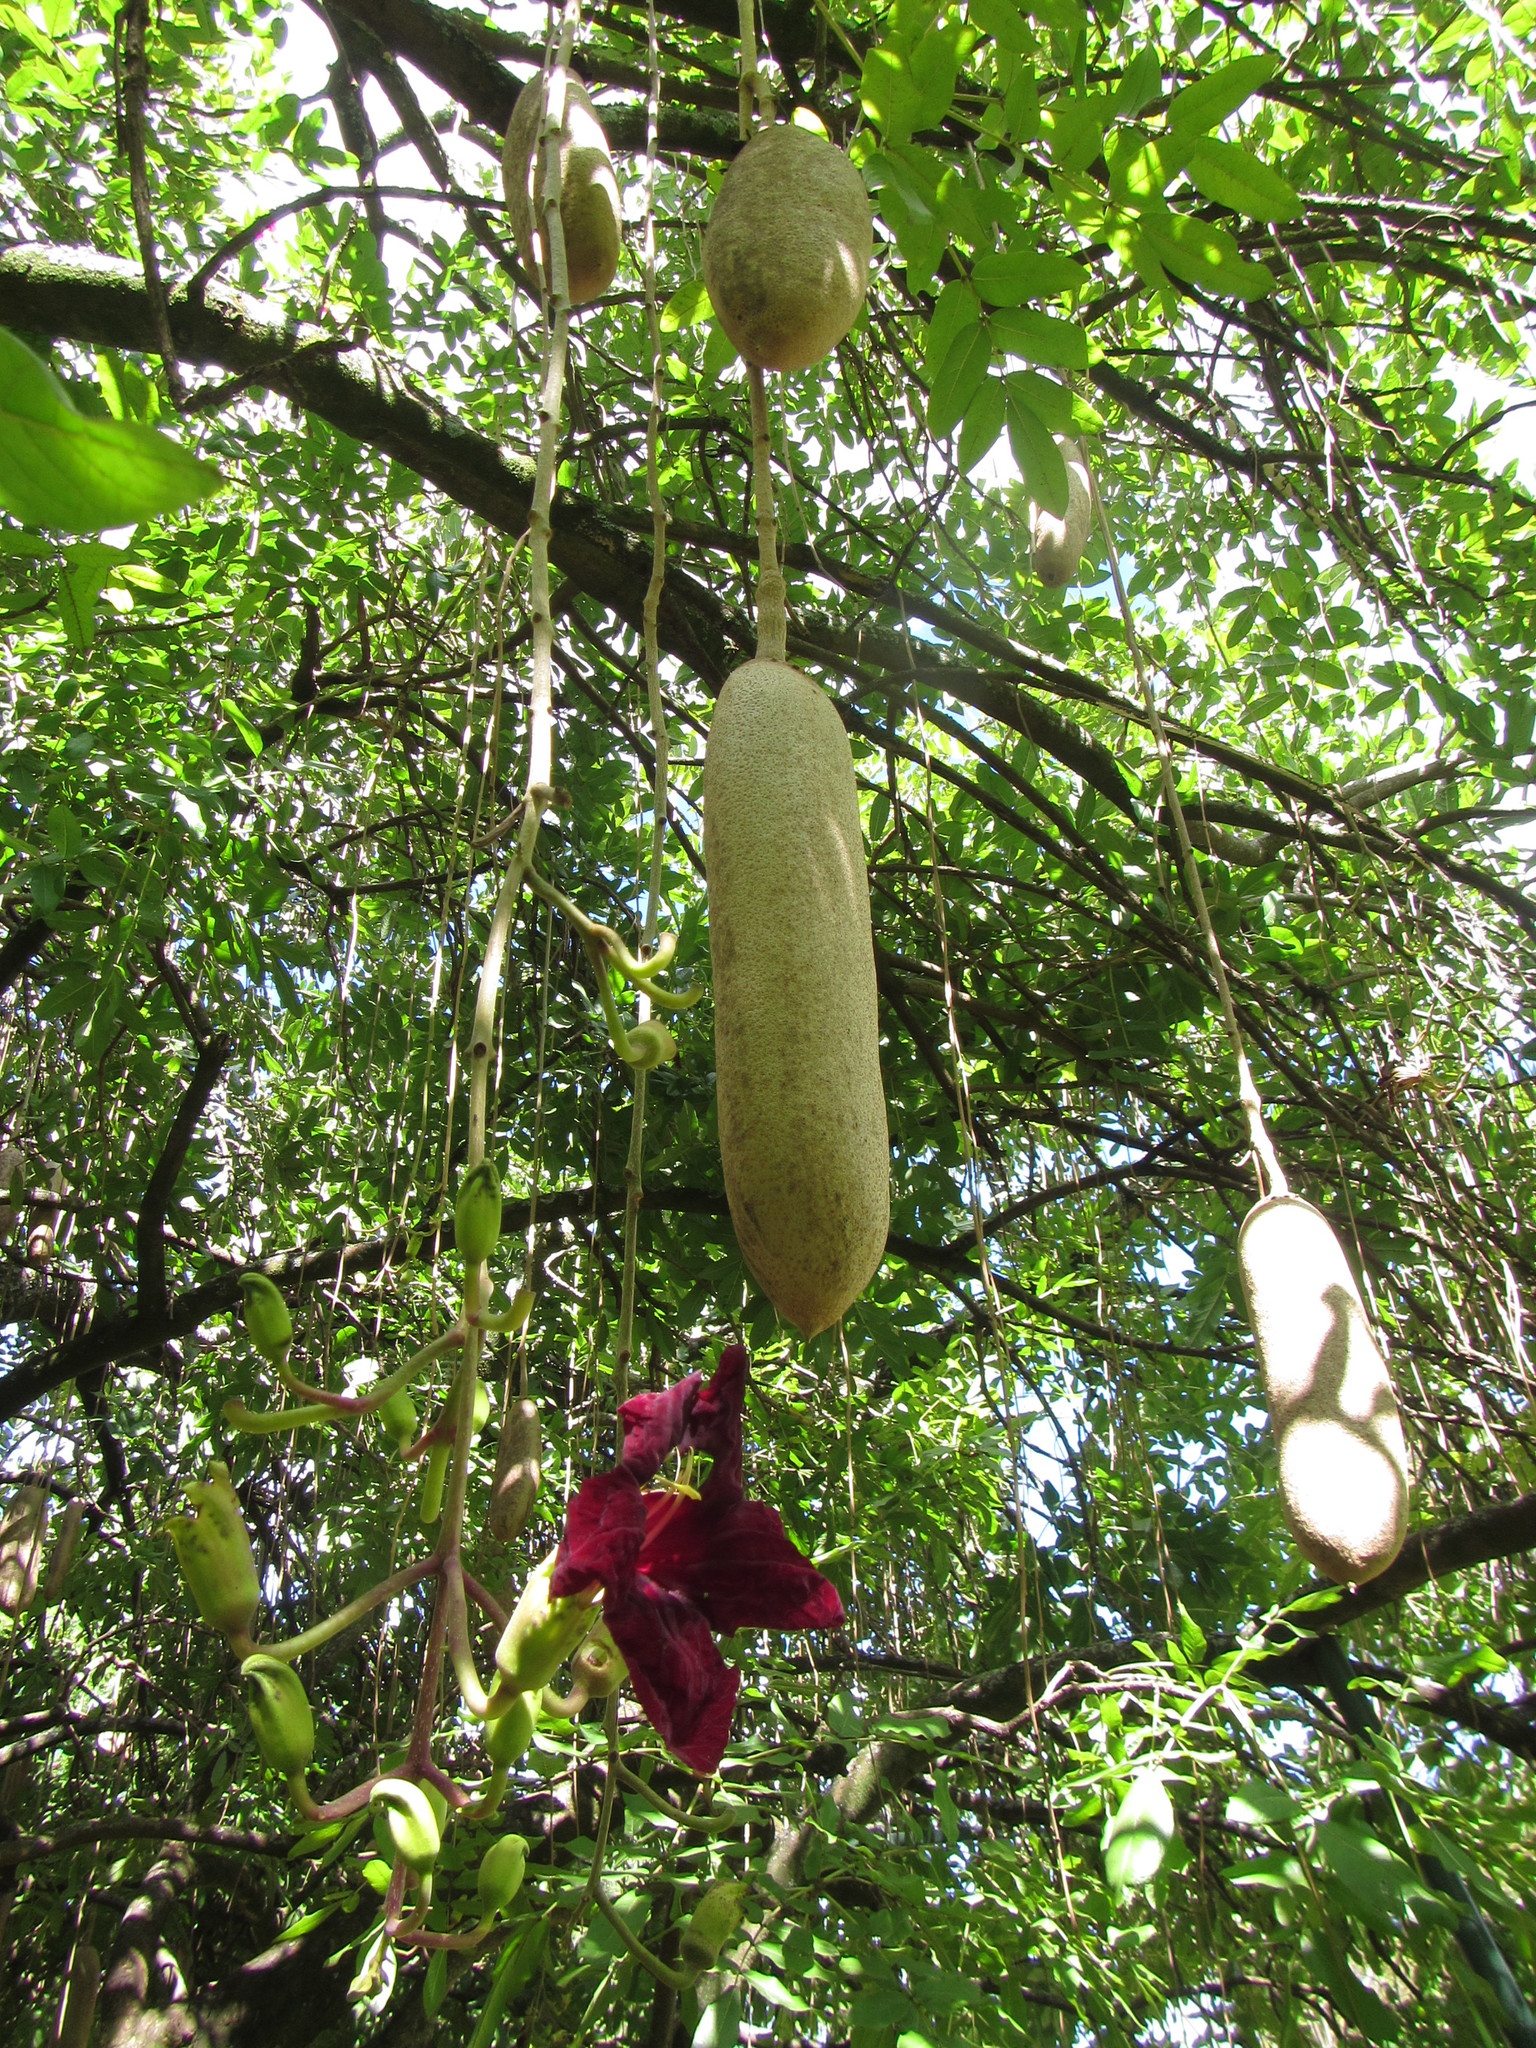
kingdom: Plantae
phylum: Tracheophyta
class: Magnoliopsida
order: Lamiales
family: Bignoniaceae
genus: Kigelia
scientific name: Kigelia africana
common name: Sausage tree
